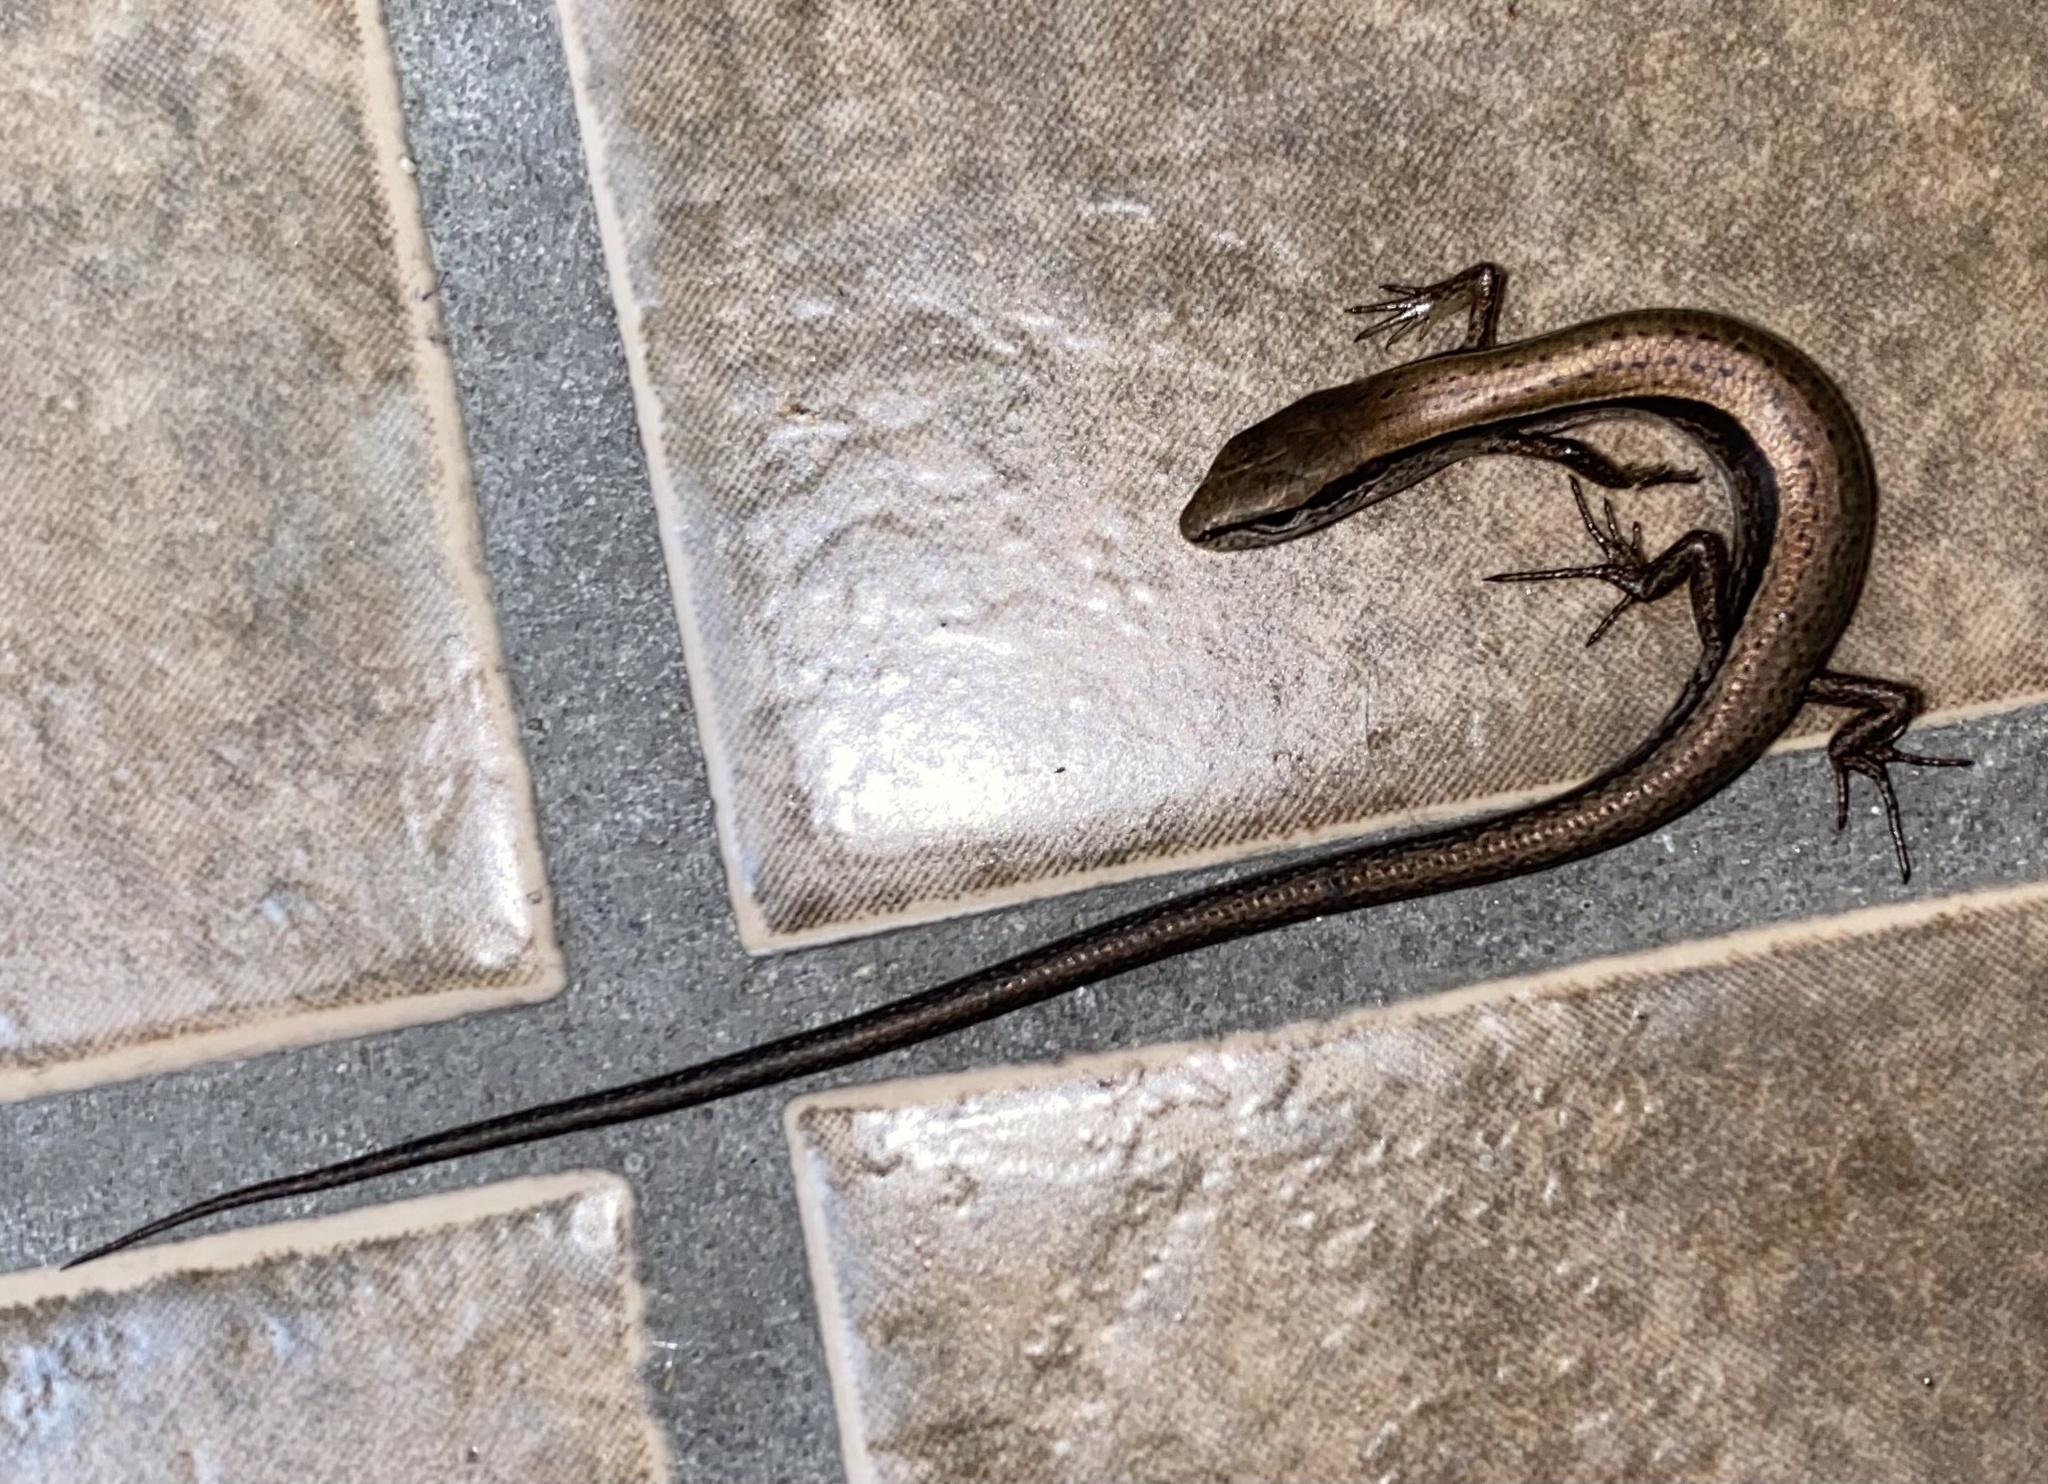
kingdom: Animalia
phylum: Chordata
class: Squamata
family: Scincidae
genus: Scincella
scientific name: Scincella lateralis
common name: Ground skink
